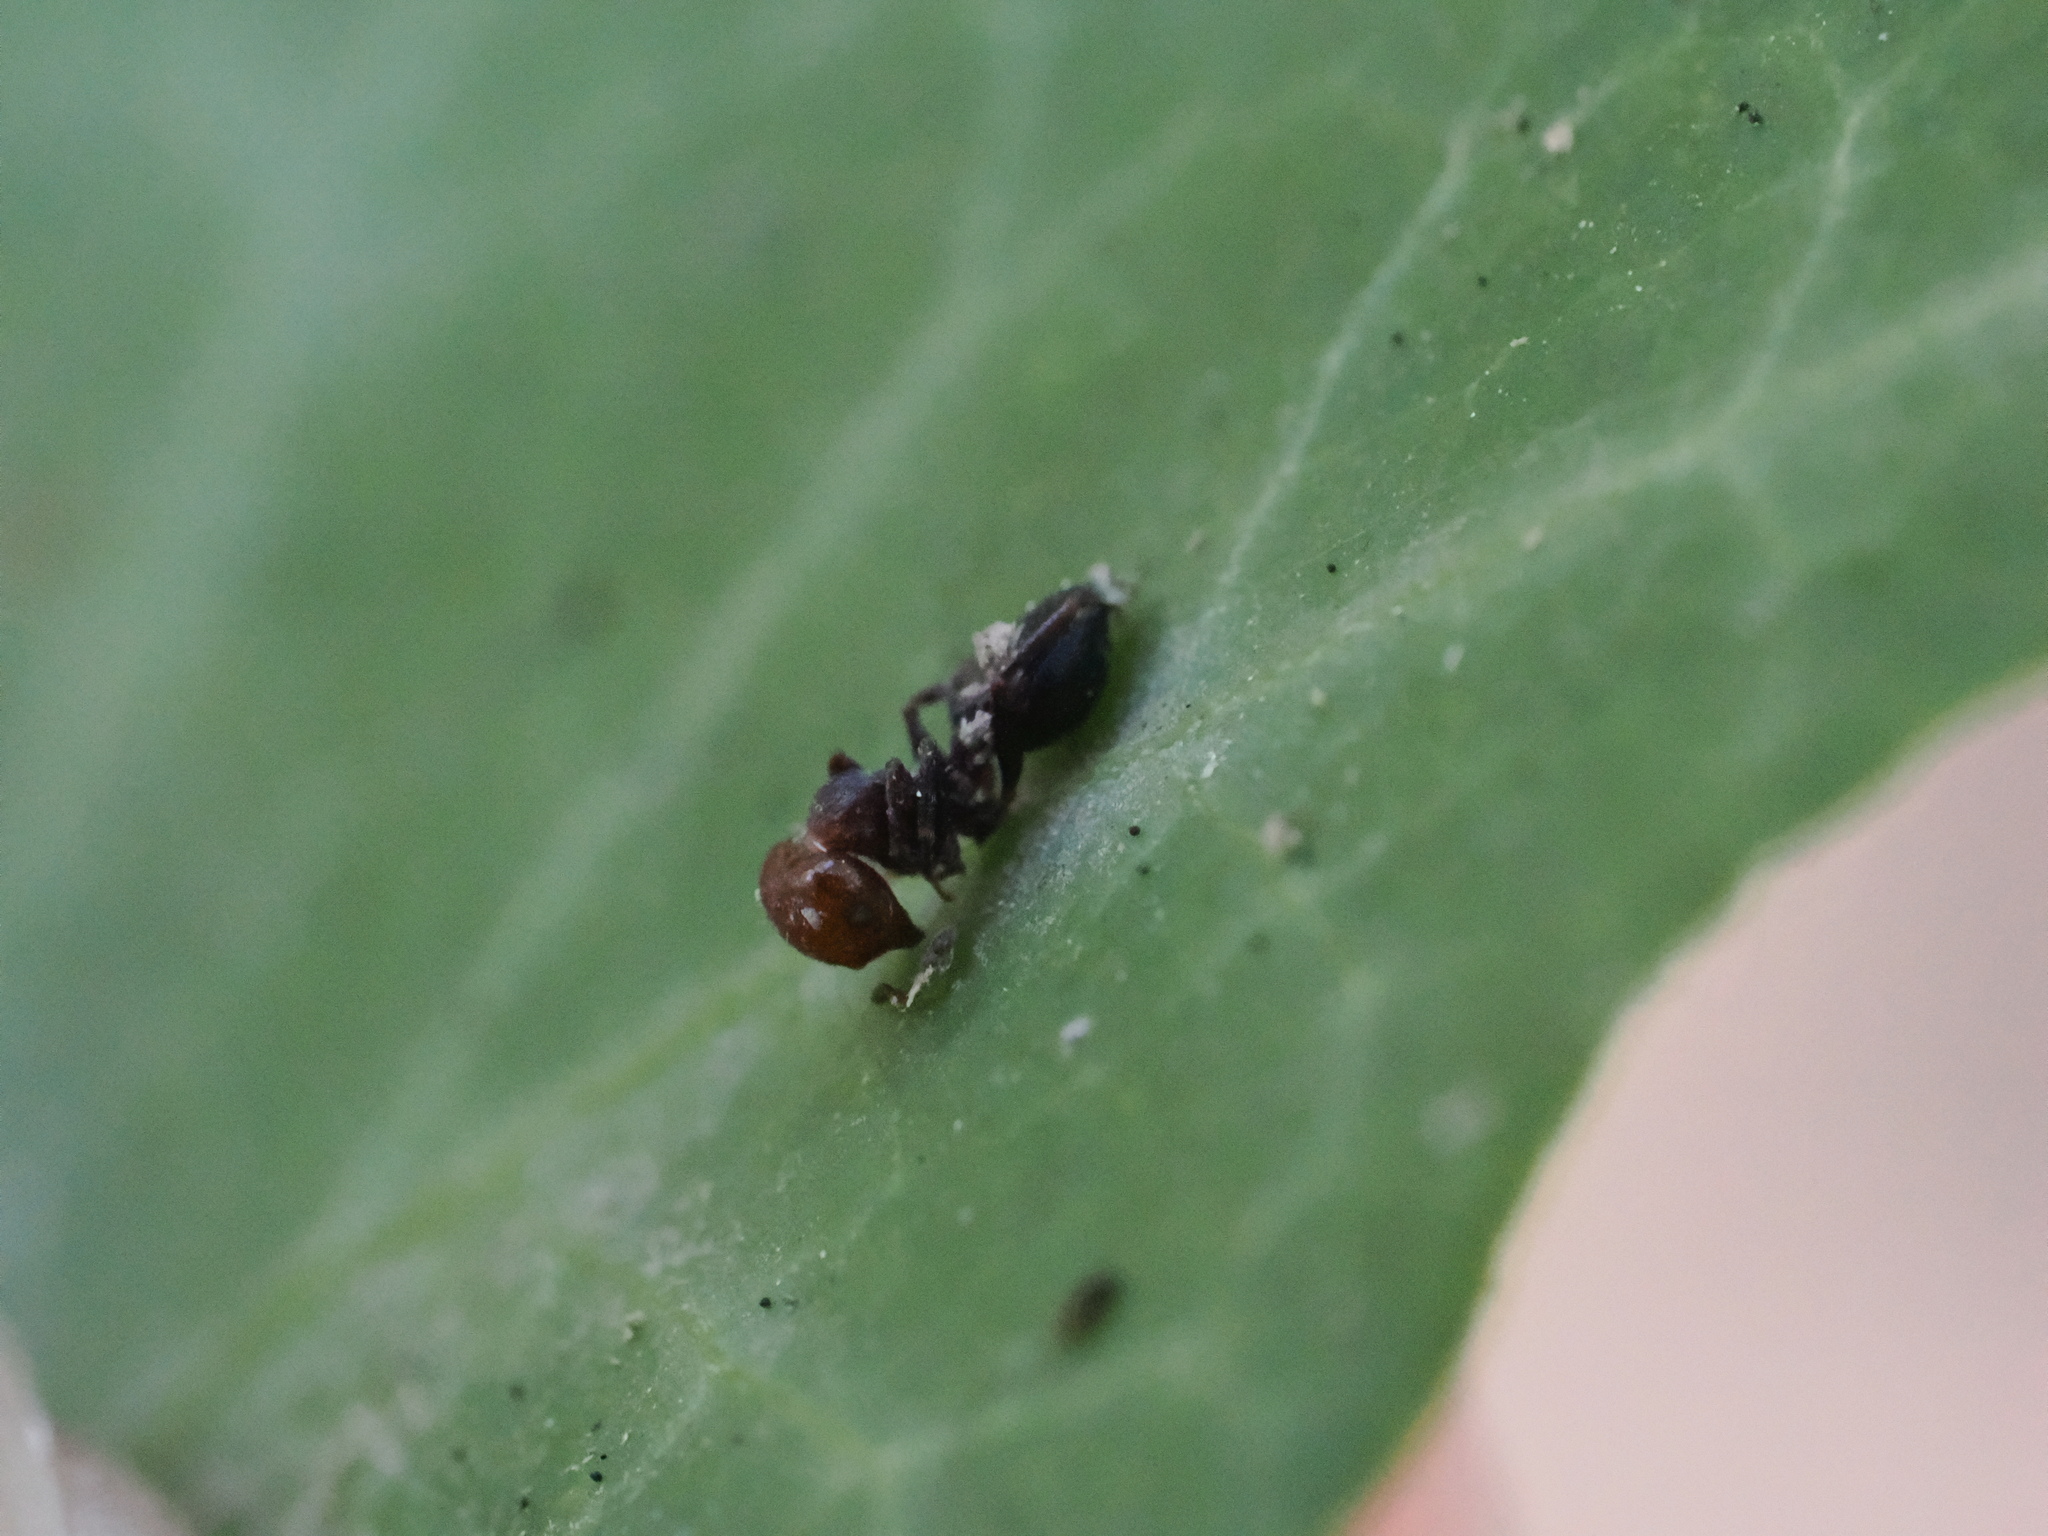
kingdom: Animalia
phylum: Arthropoda
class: Insecta
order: Hymenoptera
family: Formicidae
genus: Crematogaster
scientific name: Crematogaster scutellaris
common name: Fourmi du liège
